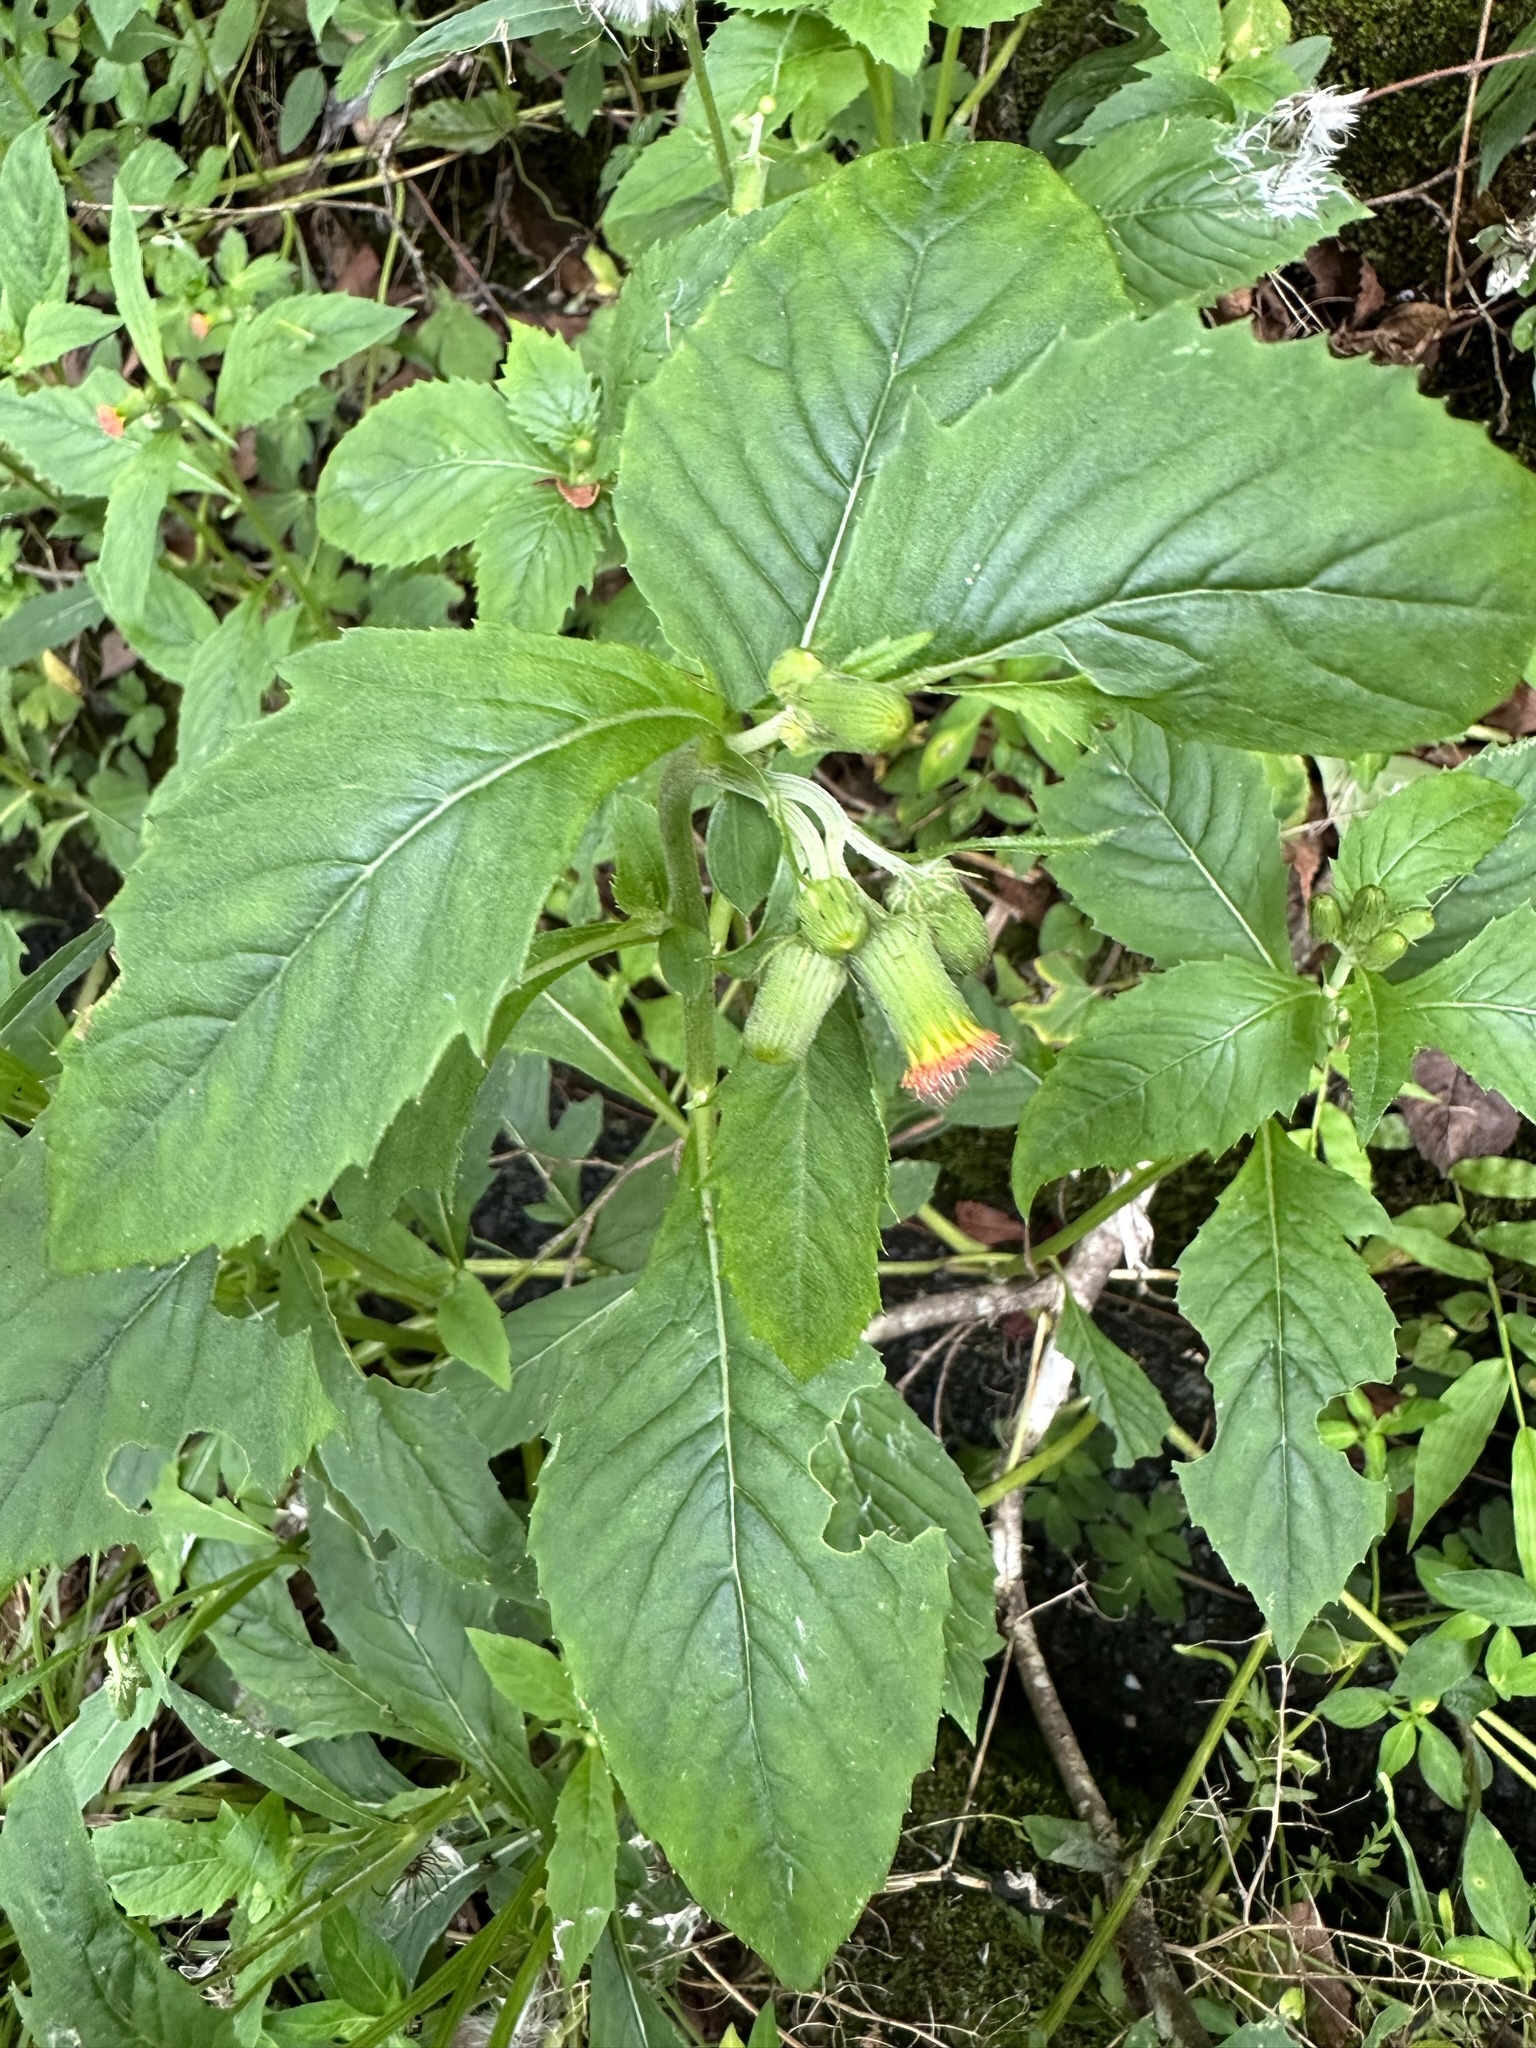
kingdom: Plantae
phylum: Tracheophyta
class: Magnoliopsida
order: Asterales
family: Asteraceae
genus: Crassocephalum
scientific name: Crassocephalum crepidioides
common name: Redflower ragleaf
